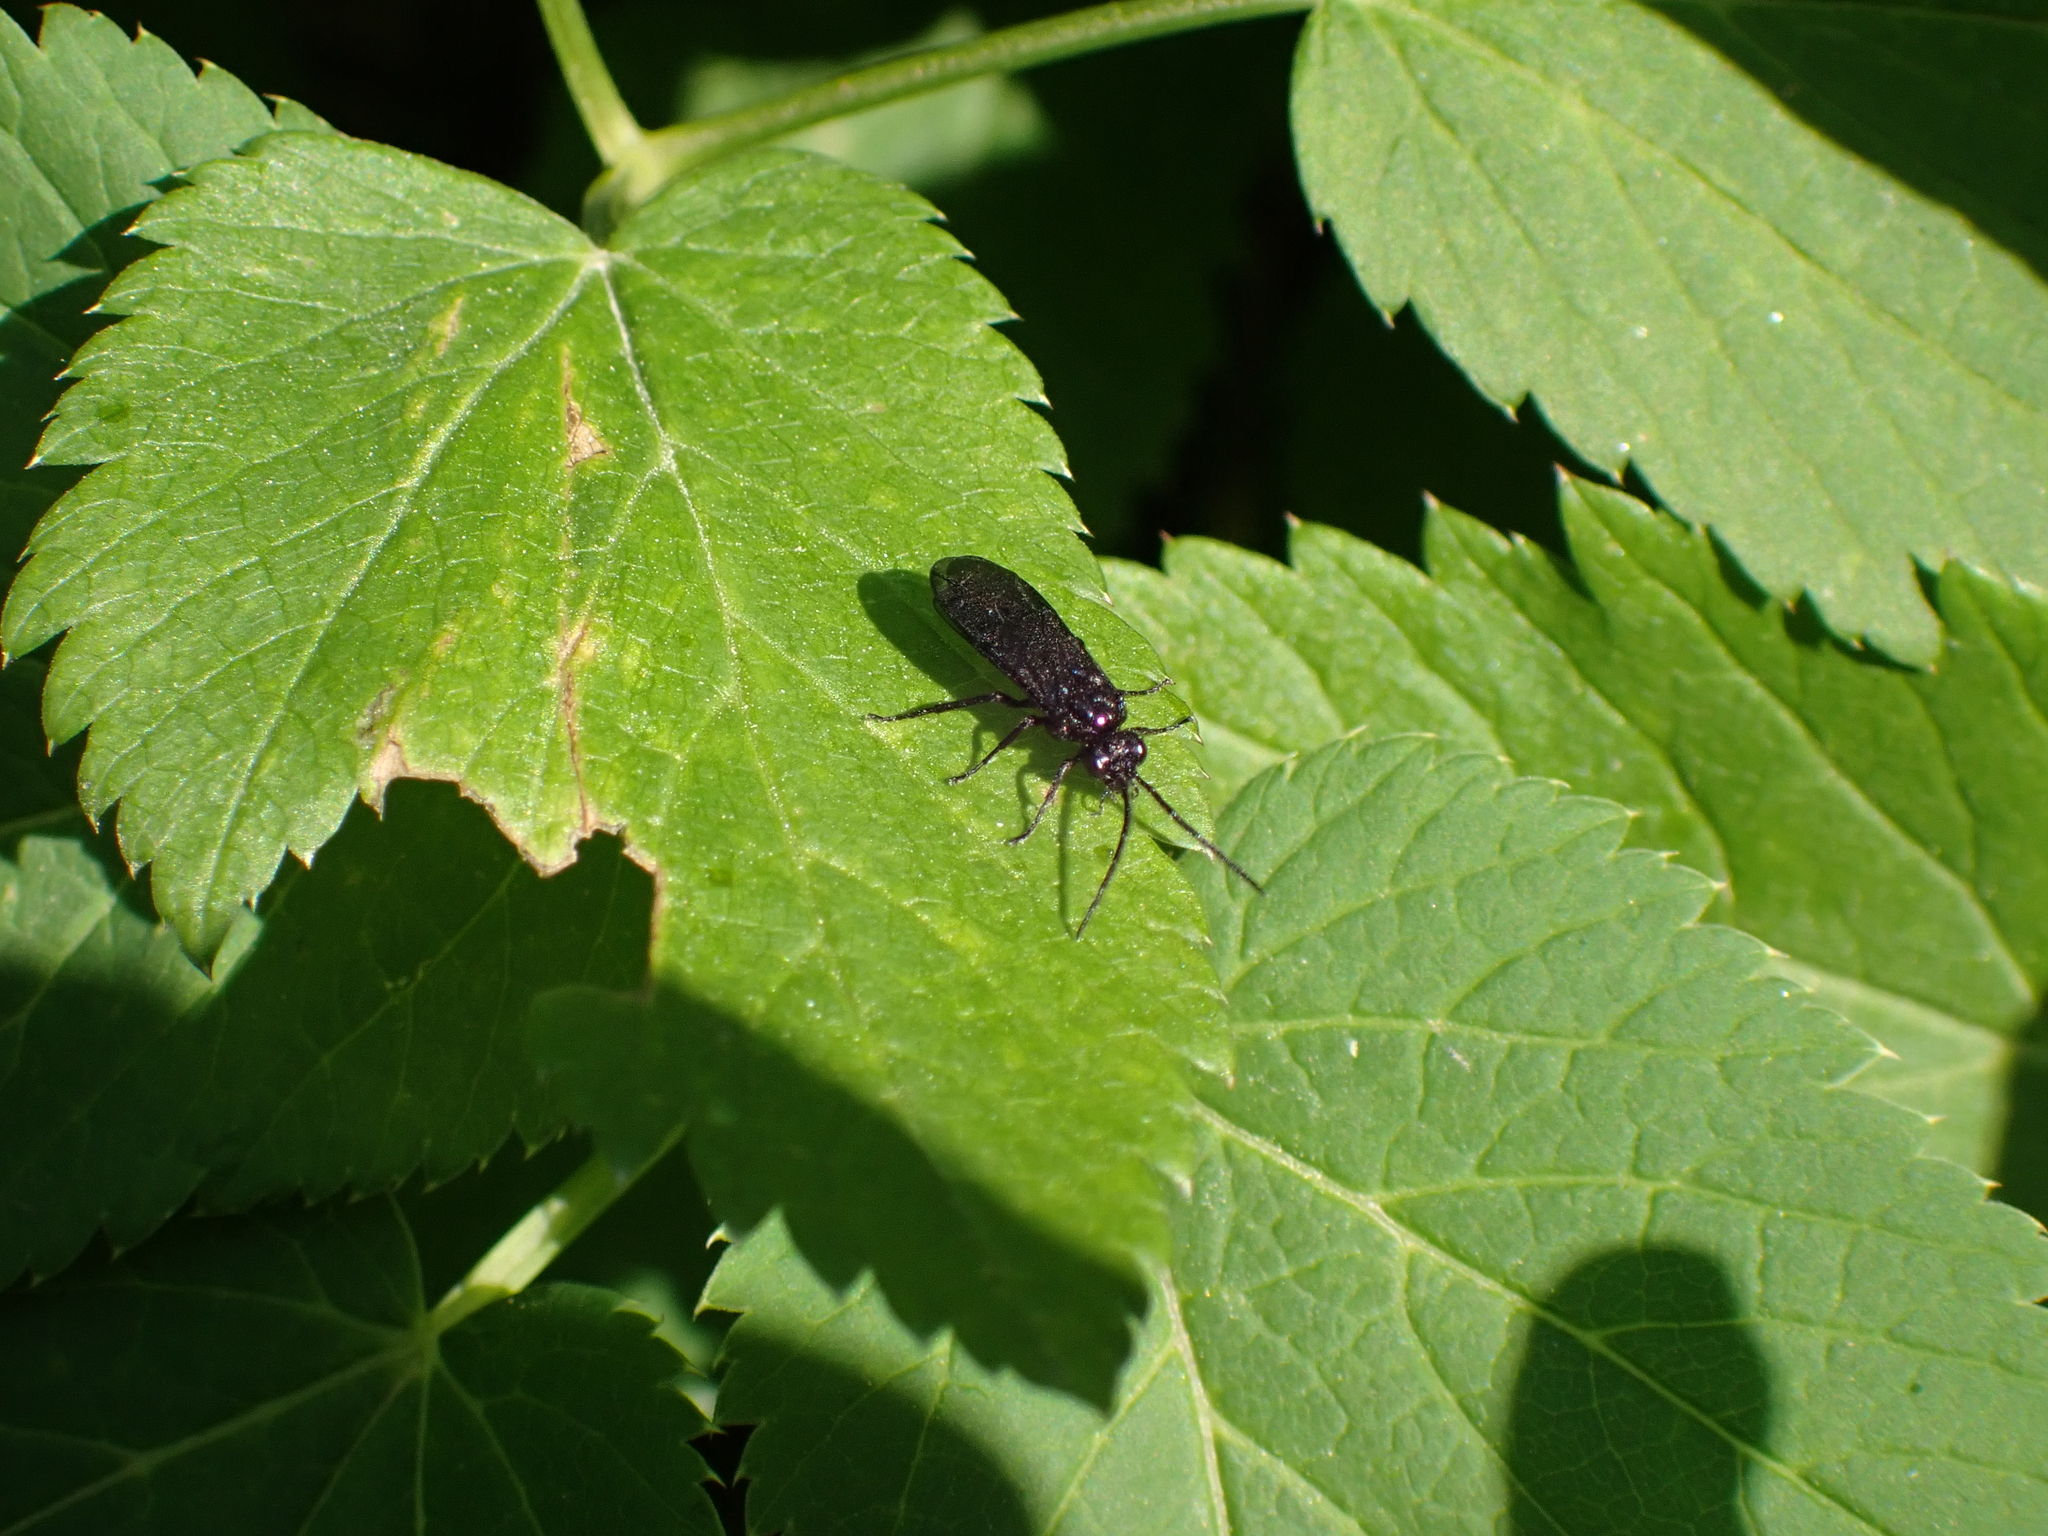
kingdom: Animalia
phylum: Arthropoda
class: Insecta
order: Hymenoptera
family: Tenthredinidae
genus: Phymatocera
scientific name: Phymatocera aterrima
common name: Solomon's-seal sawfly
